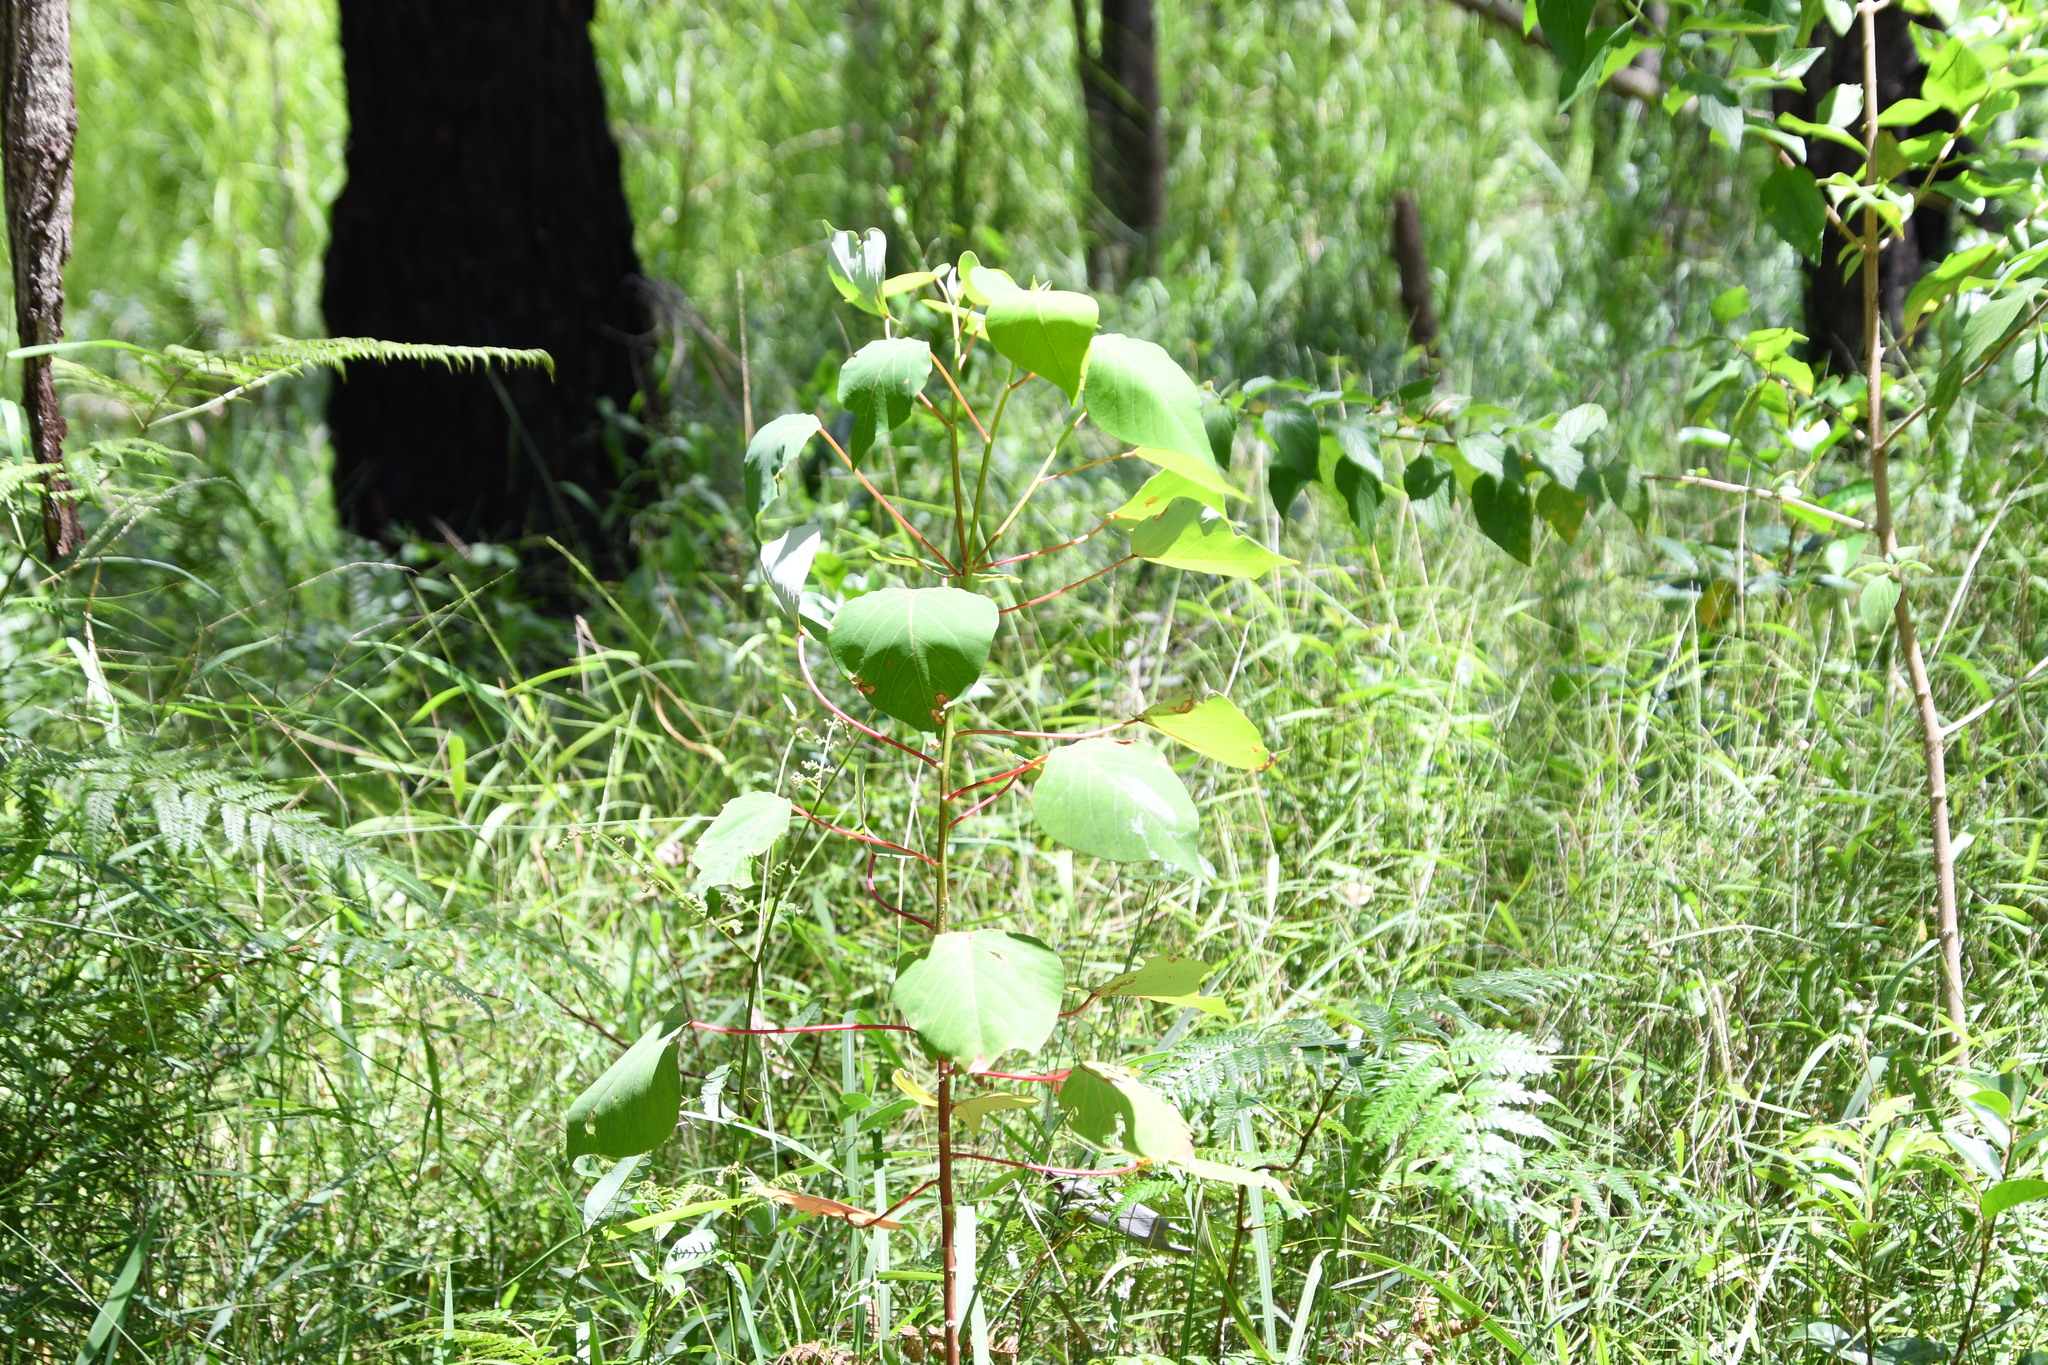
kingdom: Plantae
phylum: Tracheophyta
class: Magnoliopsida
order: Malpighiales
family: Euphorbiaceae
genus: Homalanthus
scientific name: Homalanthus populifolius
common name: Queensland poplar
